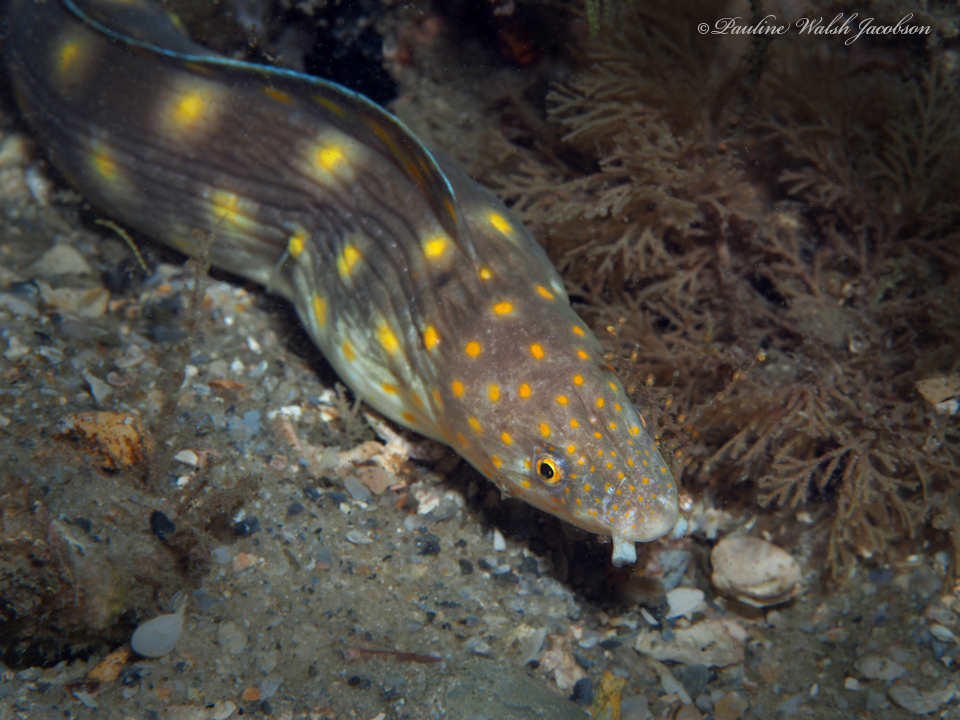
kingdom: Animalia
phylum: Chordata
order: Anguilliformes
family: Ophichthidae
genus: Myrichthys
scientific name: Myrichthys breviceps
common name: Sharptail eel
